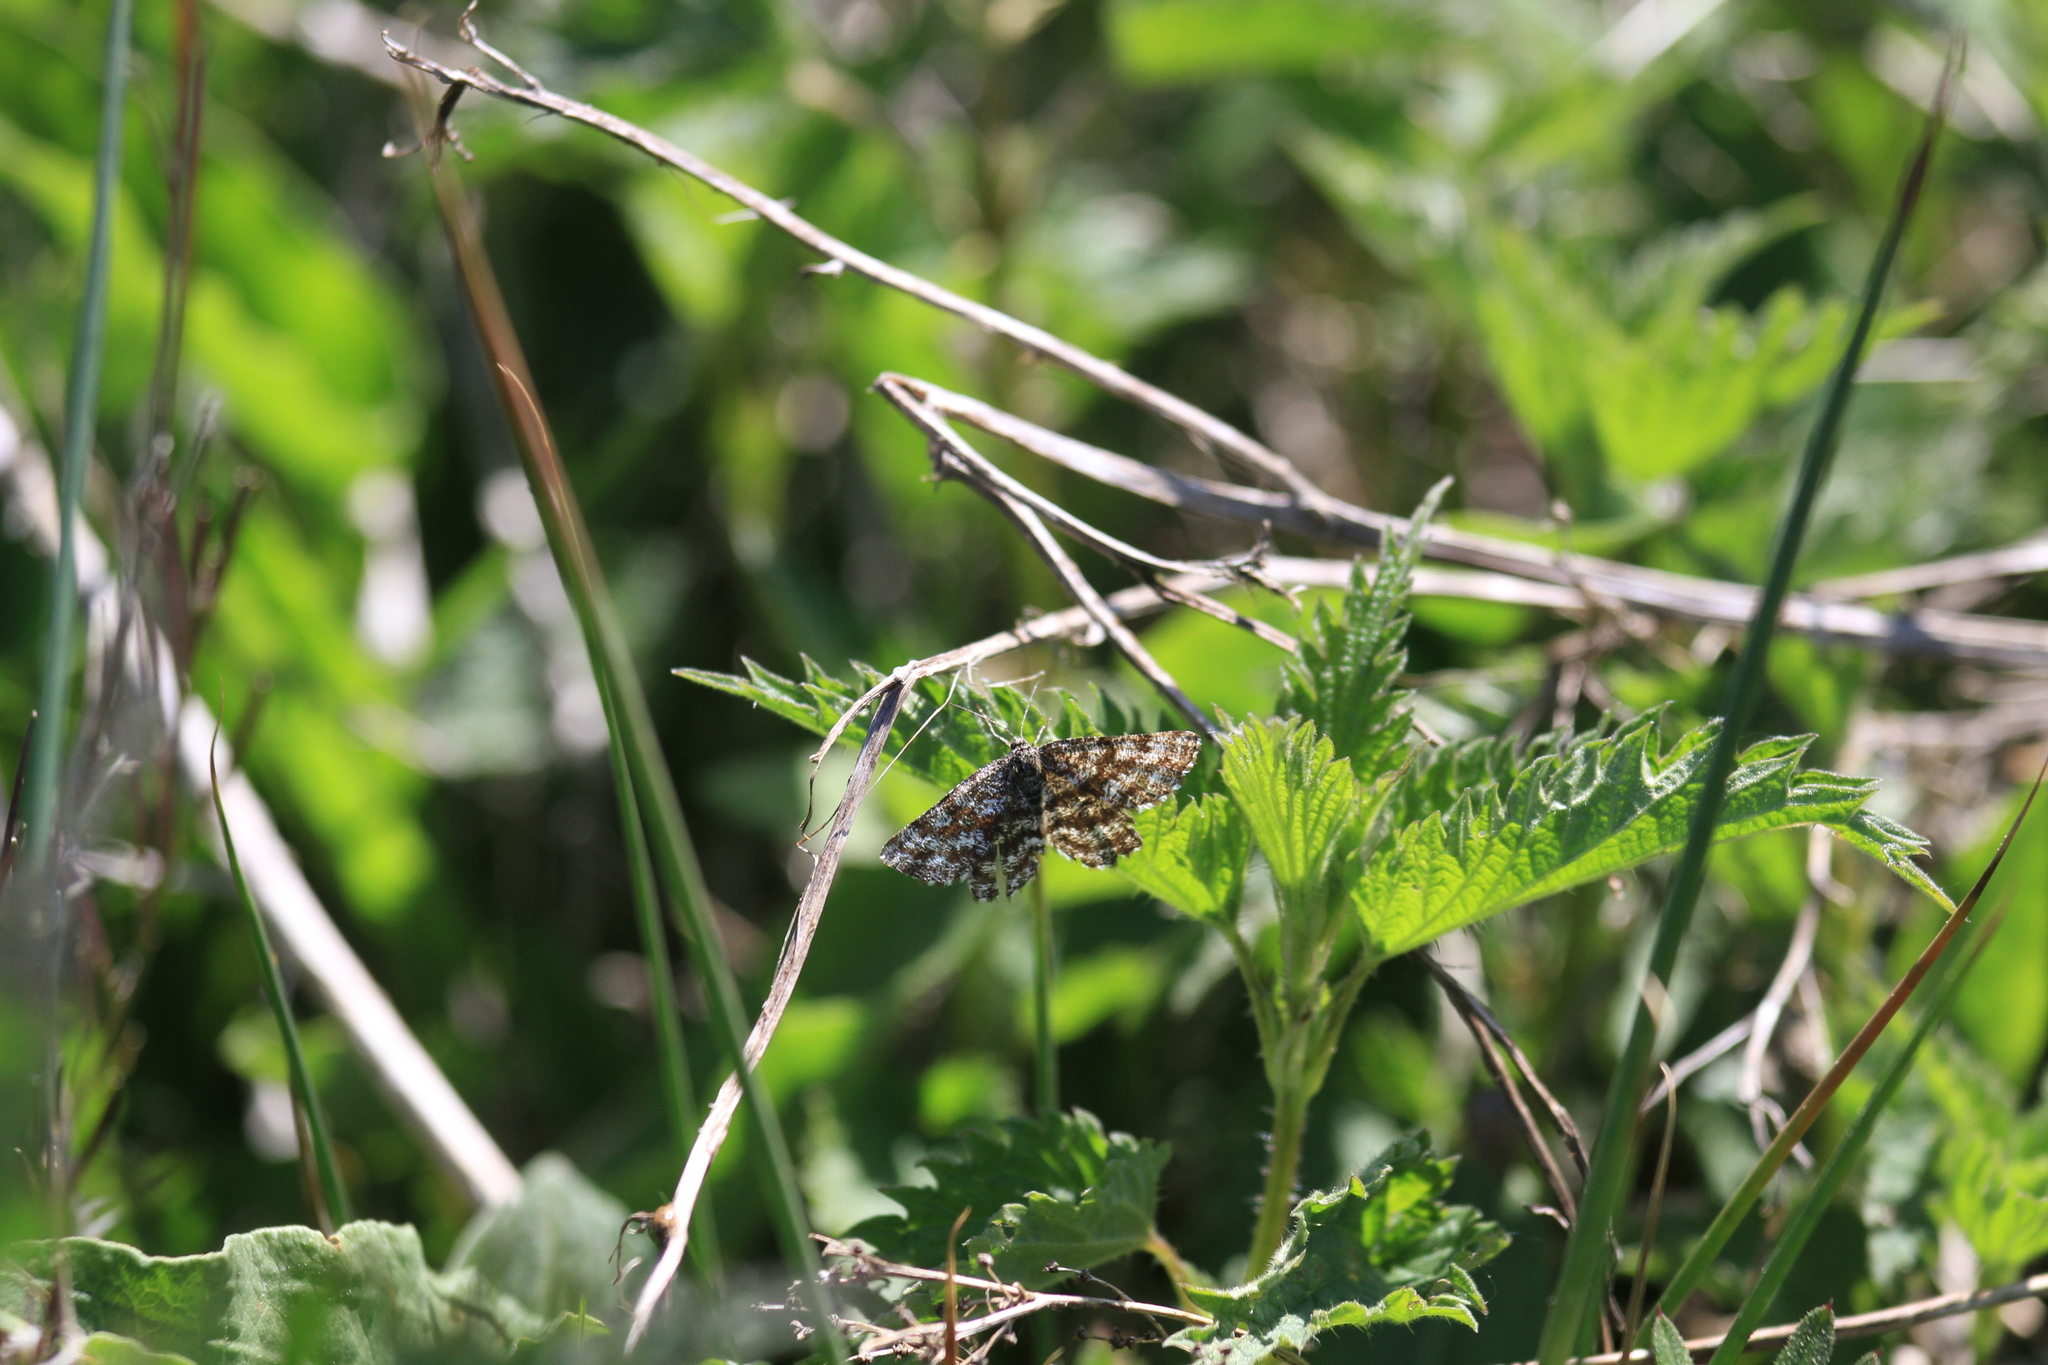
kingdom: Animalia
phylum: Arthropoda
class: Insecta
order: Lepidoptera
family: Geometridae
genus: Ematurga
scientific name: Ematurga atomaria
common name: Common heath
